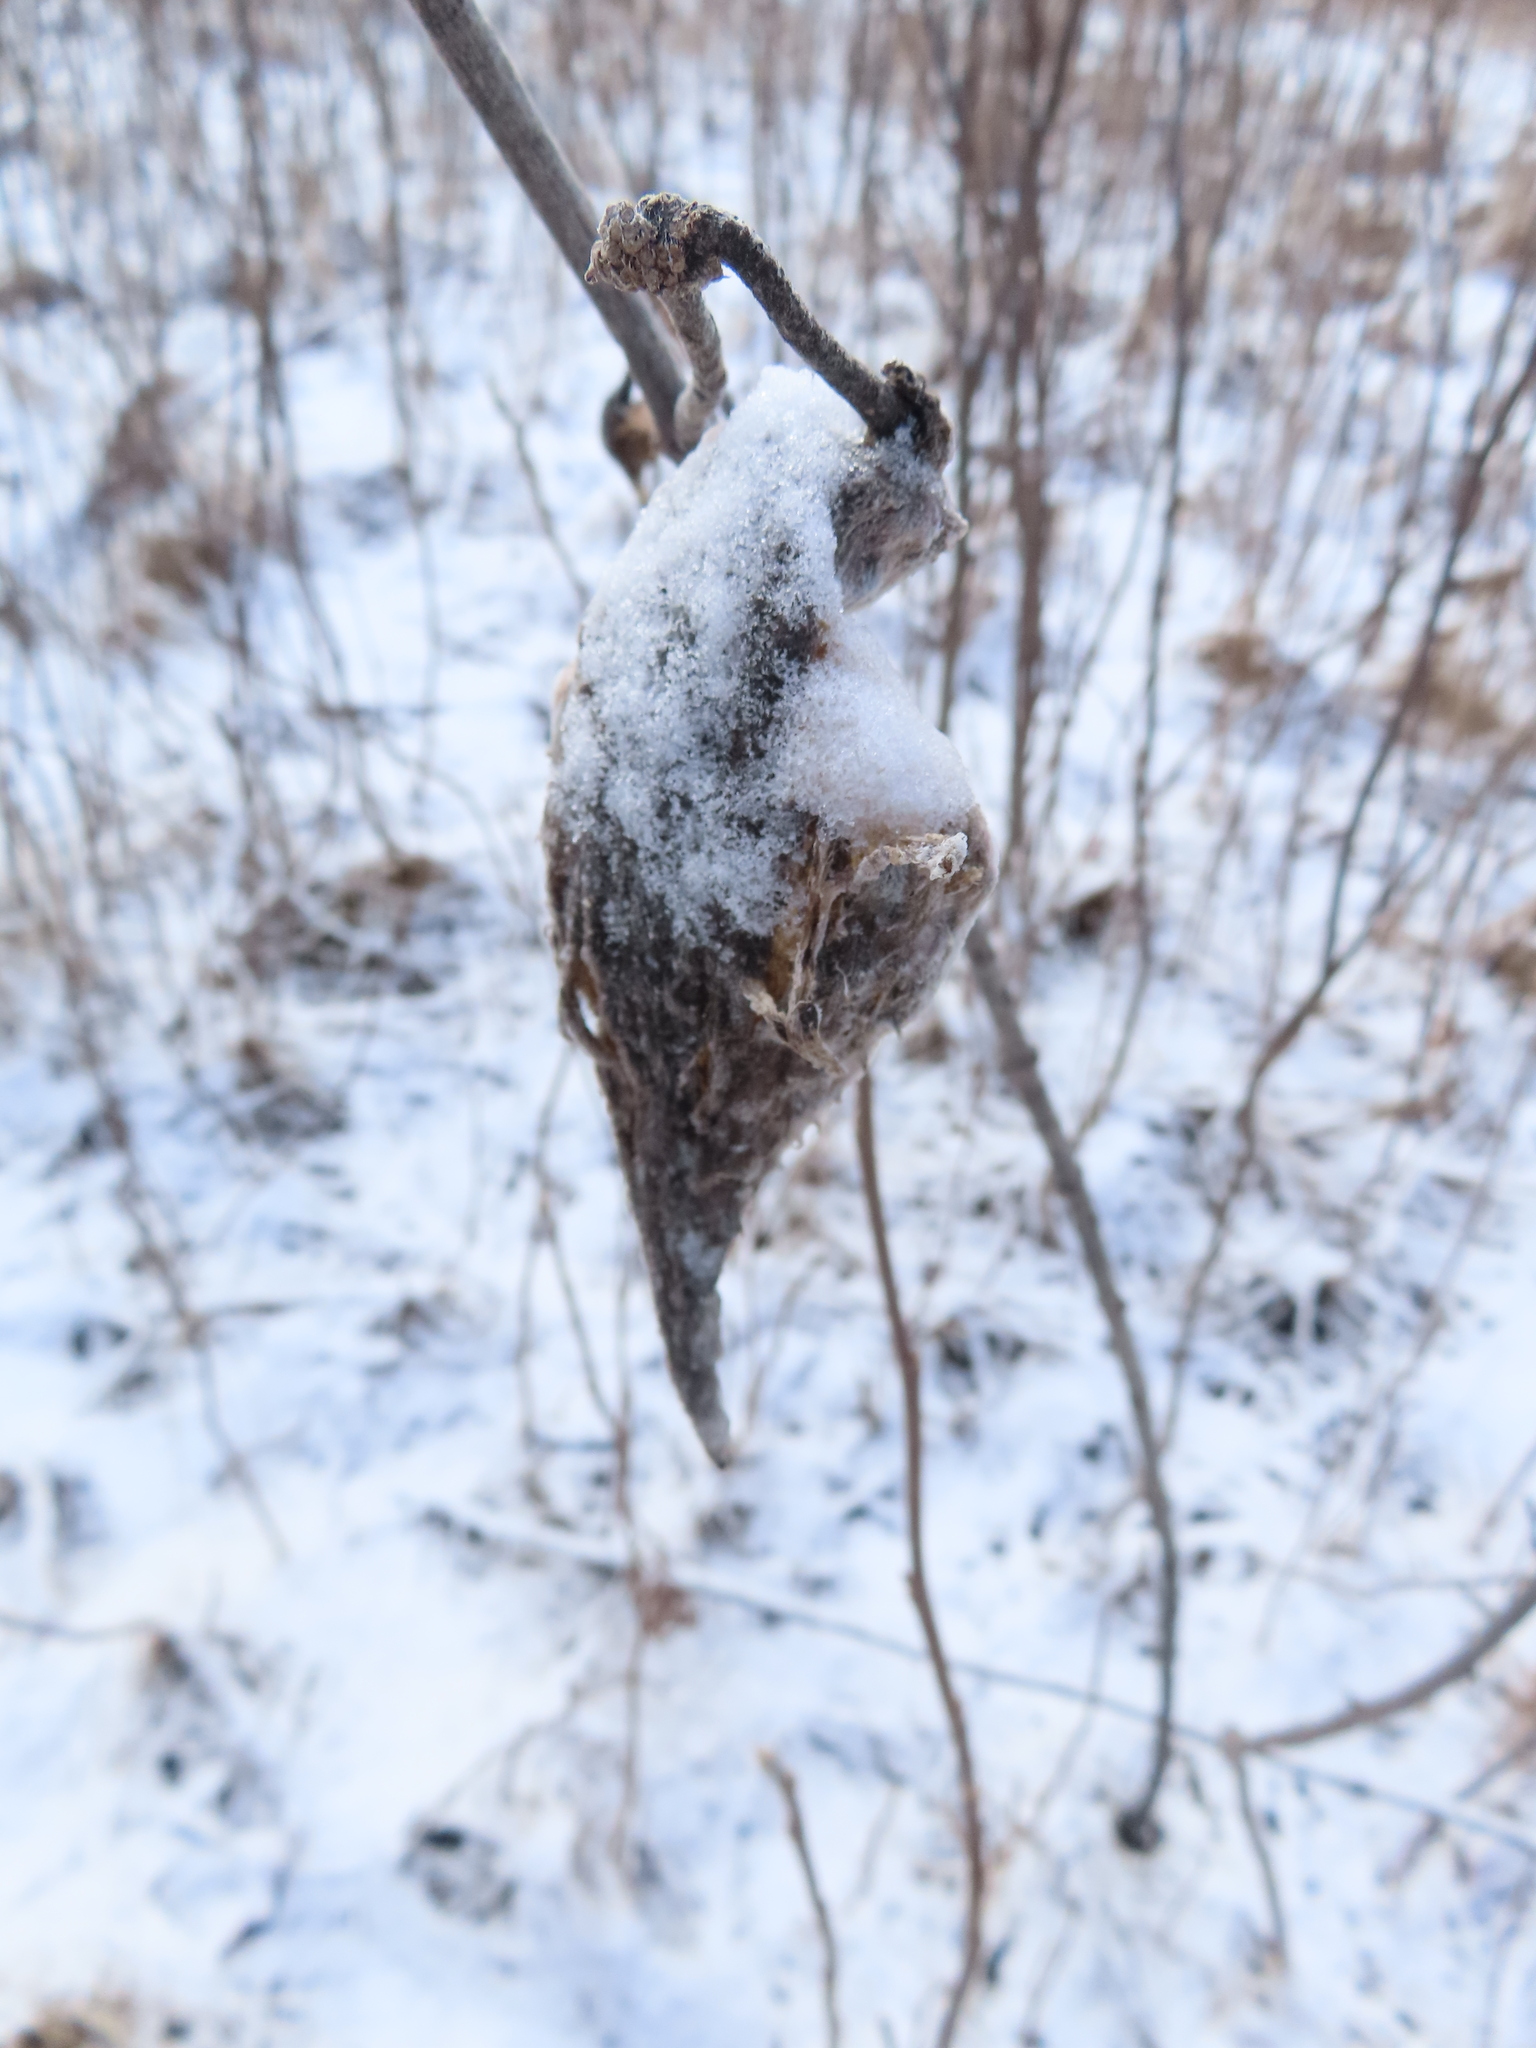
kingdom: Plantae
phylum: Tracheophyta
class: Magnoliopsida
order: Gentianales
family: Apocynaceae
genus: Asclepias
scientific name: Asclepias syriaca
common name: Common milkweed
